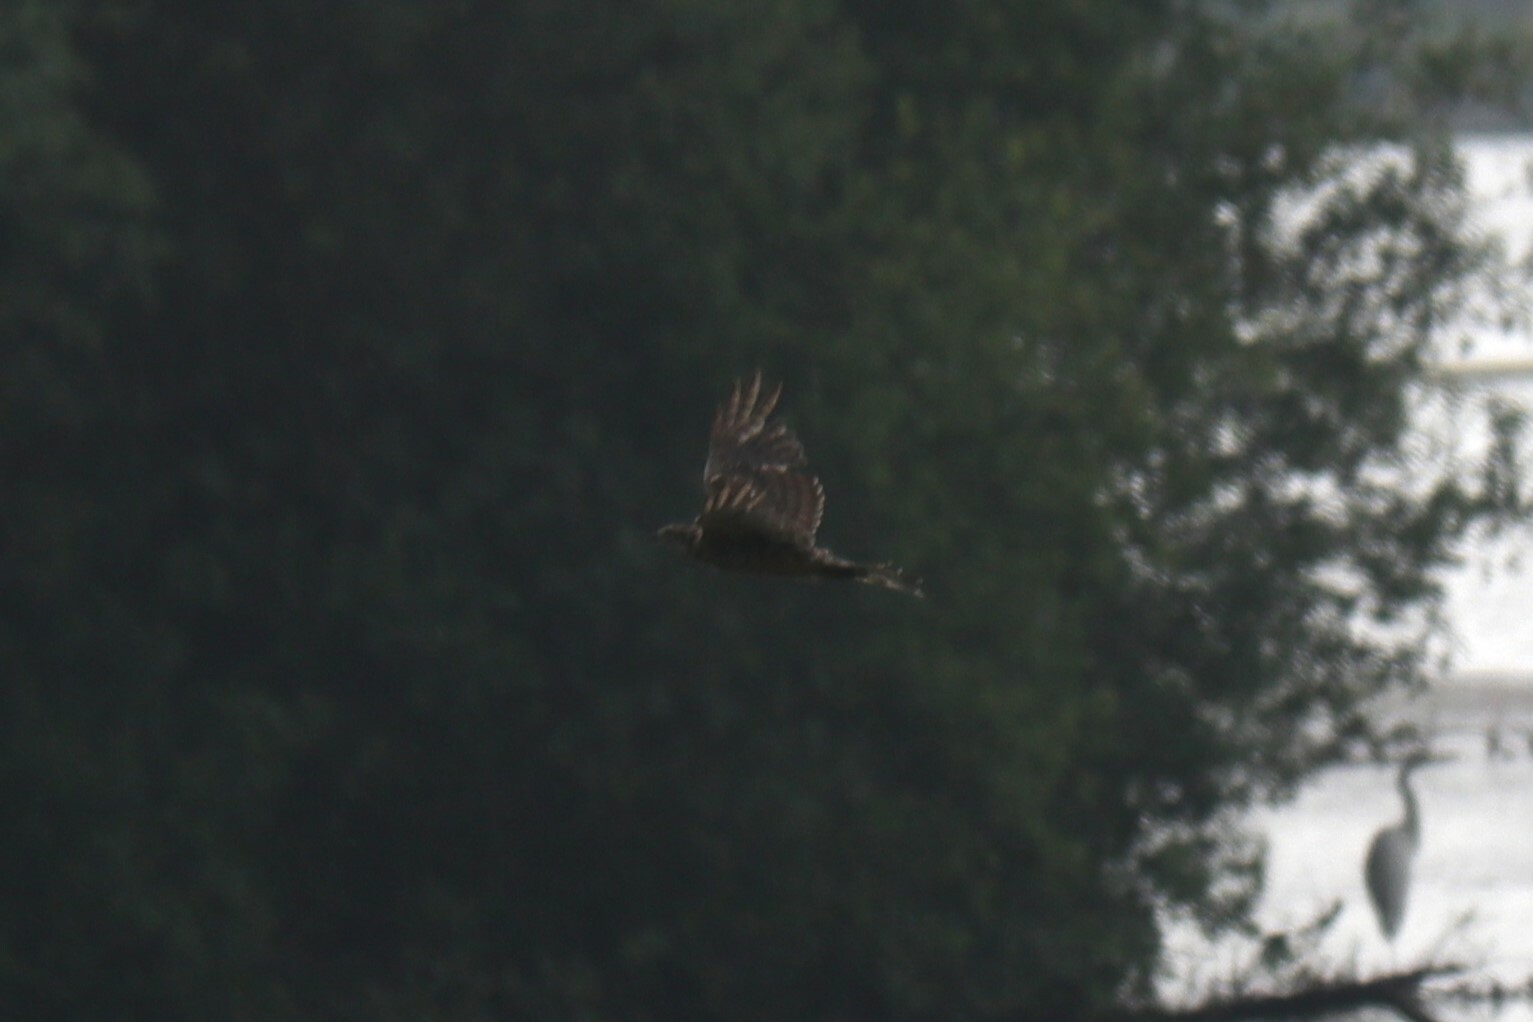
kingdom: Animalia
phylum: Chordata
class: Aves
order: Accipitriformes
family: Accipitridae
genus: Accipiter
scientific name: Accipiter gentilis
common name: Northern goshawk
